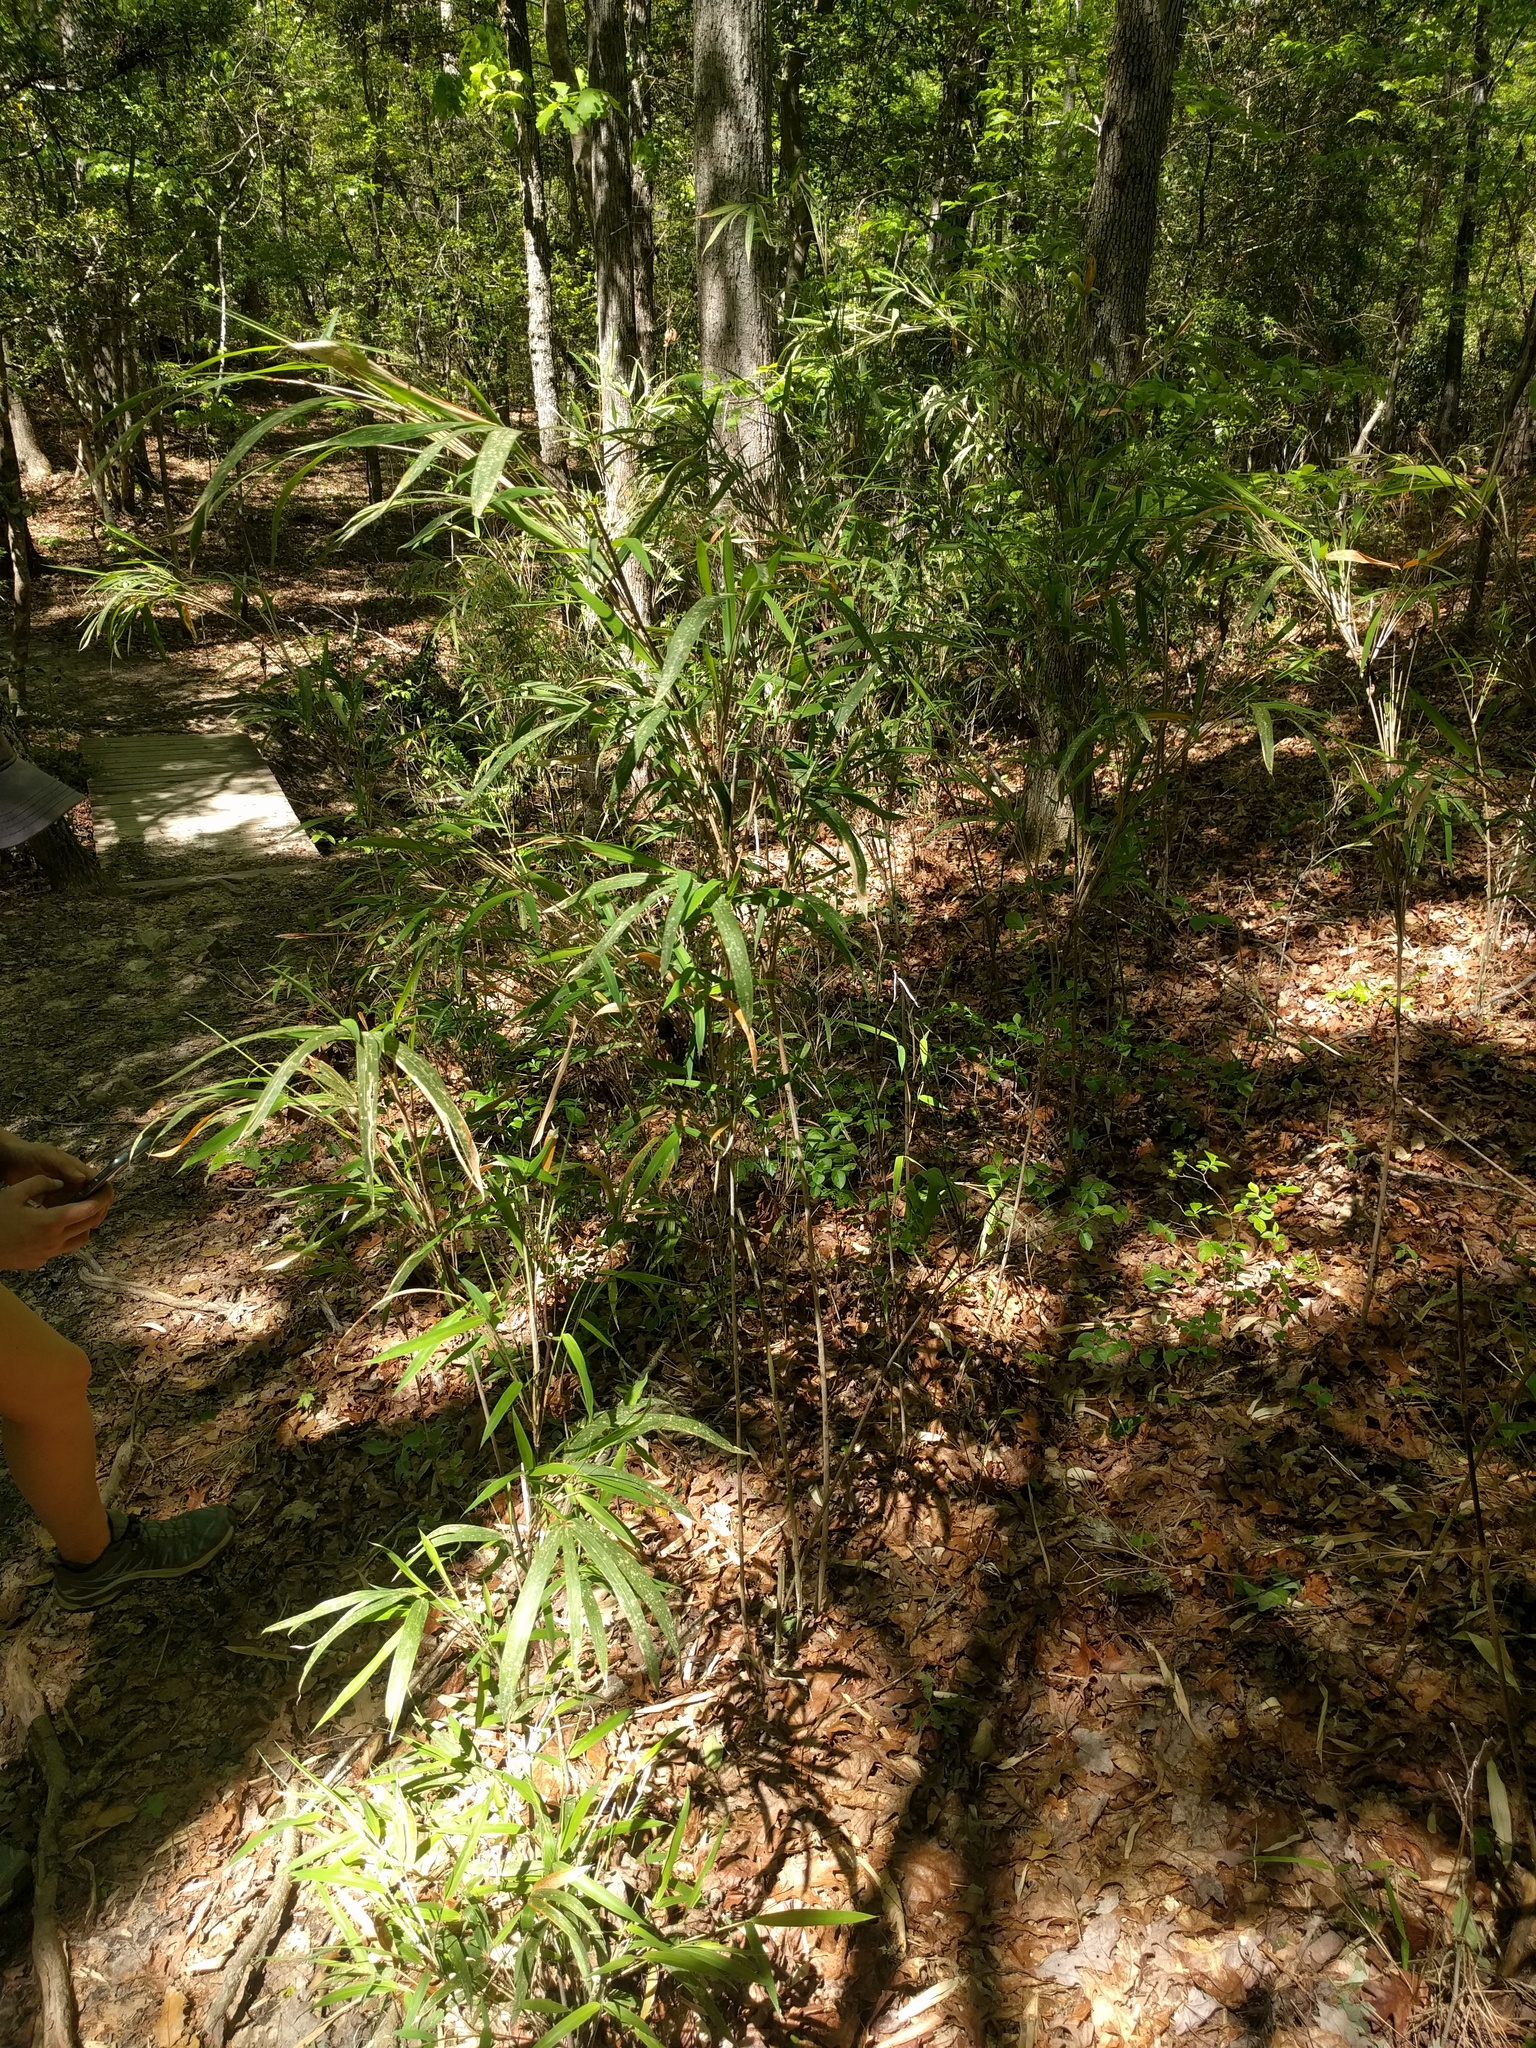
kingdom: Plantae
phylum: Tracheophyta
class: Liliopsida
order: Poales
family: Poaceae
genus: Arundinaria
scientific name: Arundinaria tecta
